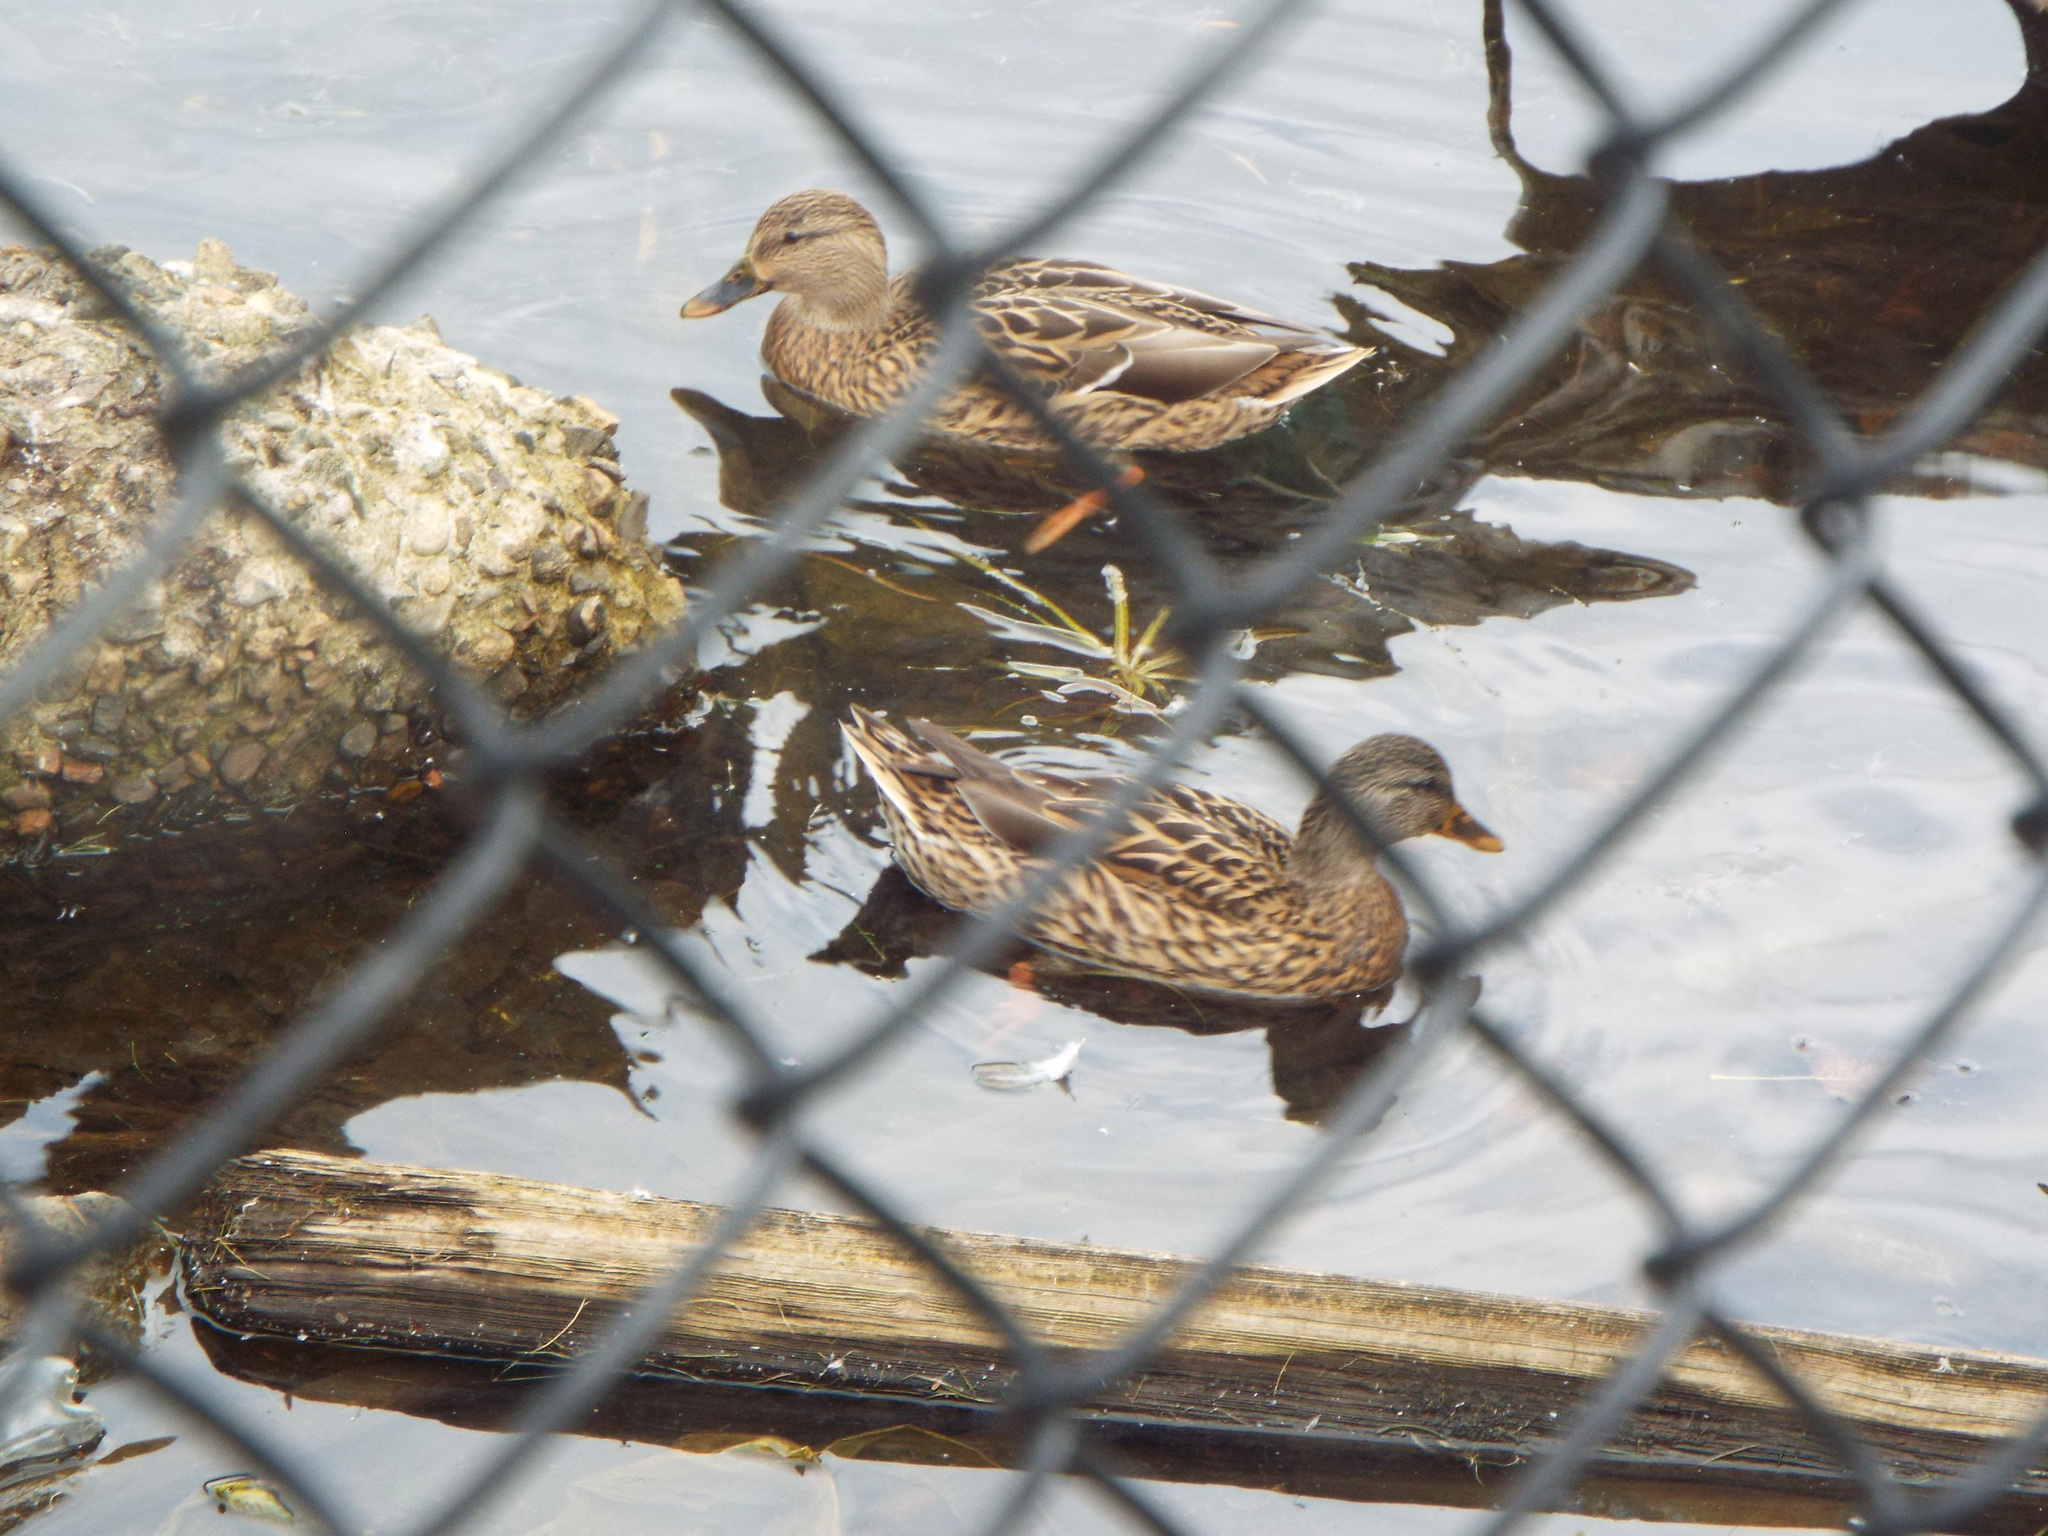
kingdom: Animalia
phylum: Chordata
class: Aves
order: Anseriformes
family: Anatidae
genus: Anas
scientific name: Anas platyrhynchos
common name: Mallard
